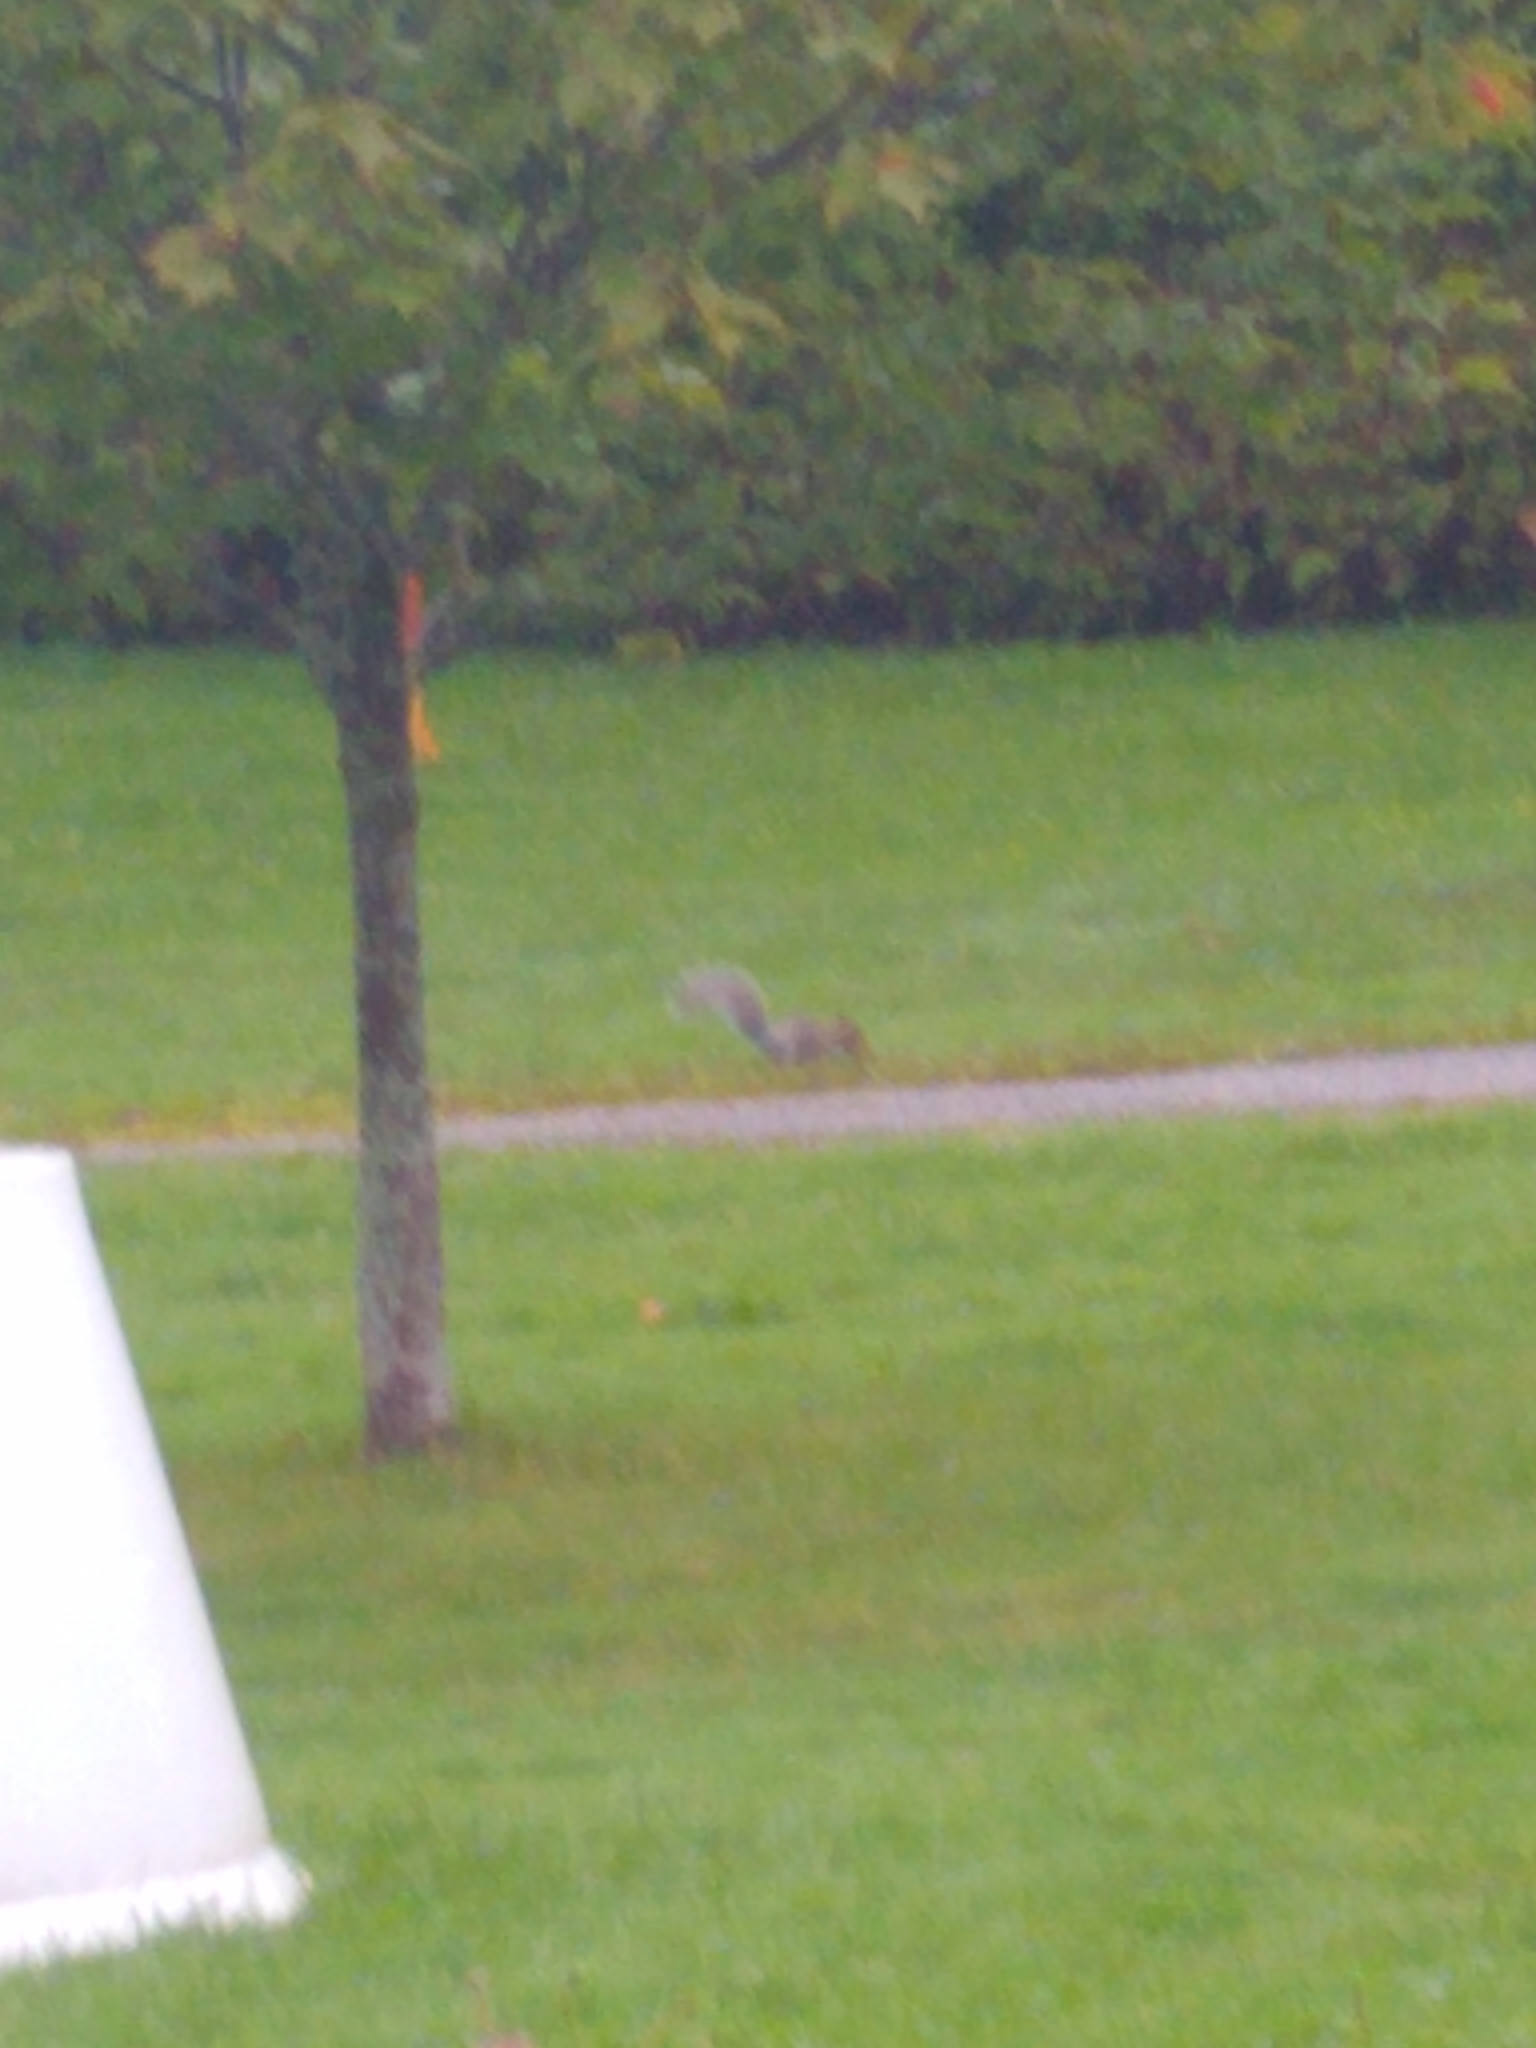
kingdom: Animalia
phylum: Chordata
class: Mammalia
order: Rodentia
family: Sciuridae
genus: Sciurus
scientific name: Sciurus carolinensis
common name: Eastern gray squirrel
